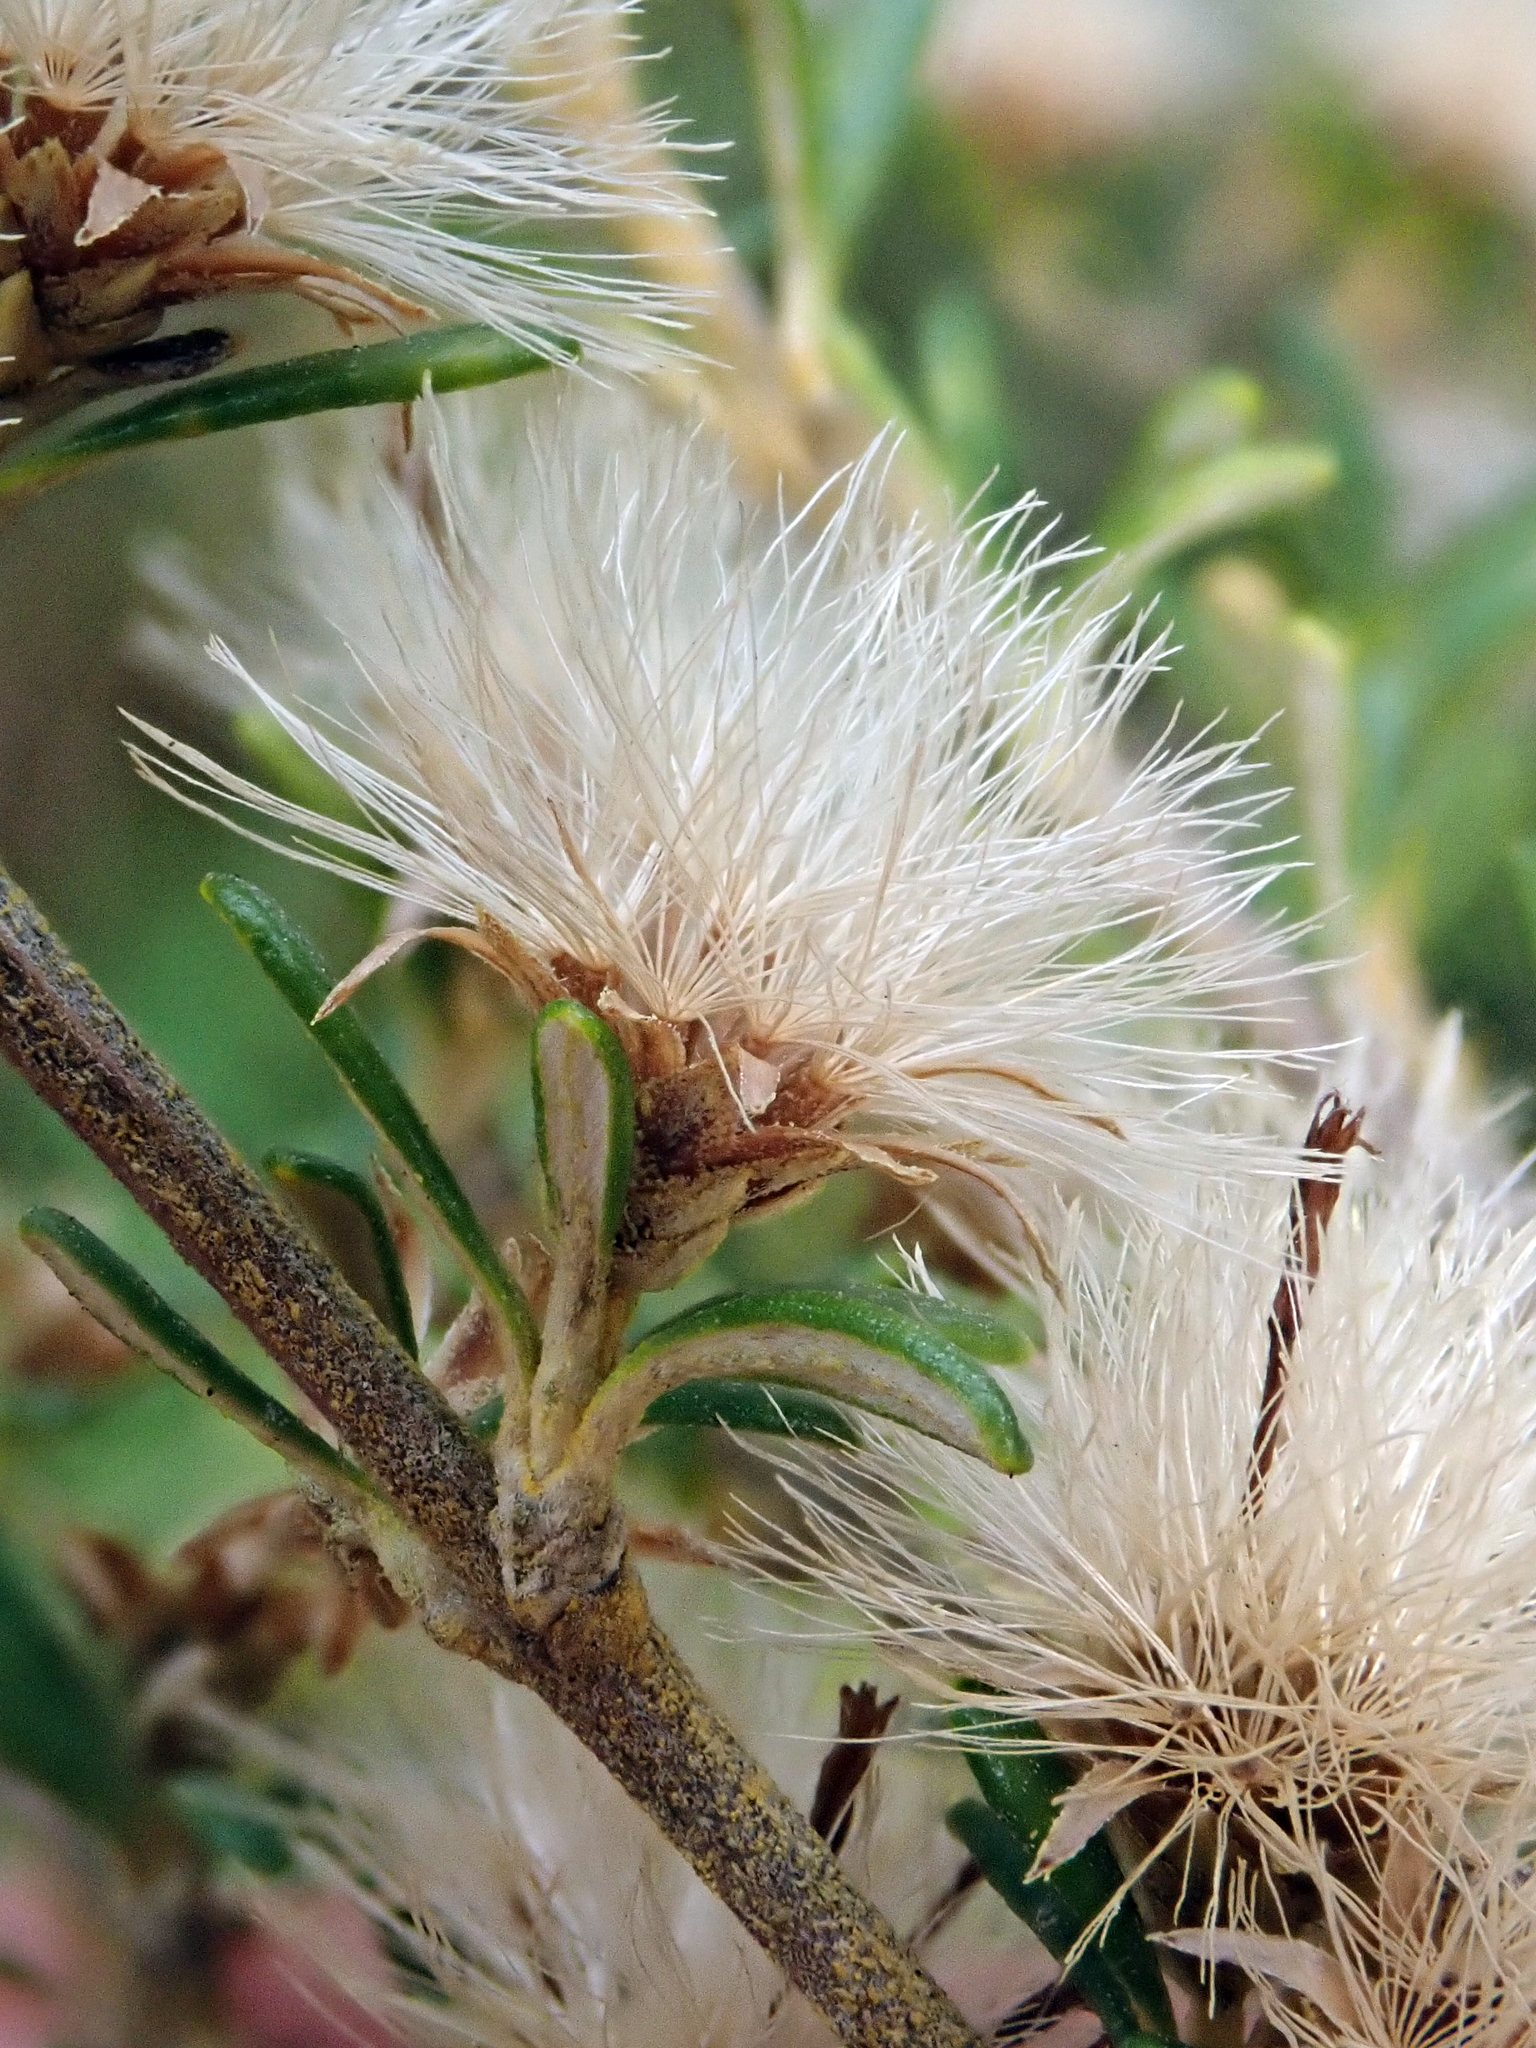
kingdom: Plantae
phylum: Tracheophyta
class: Magnoliopsida
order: Asterales
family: Asteraceae
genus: Olearia
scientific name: Olearia solandri
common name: Coastal daisybush
